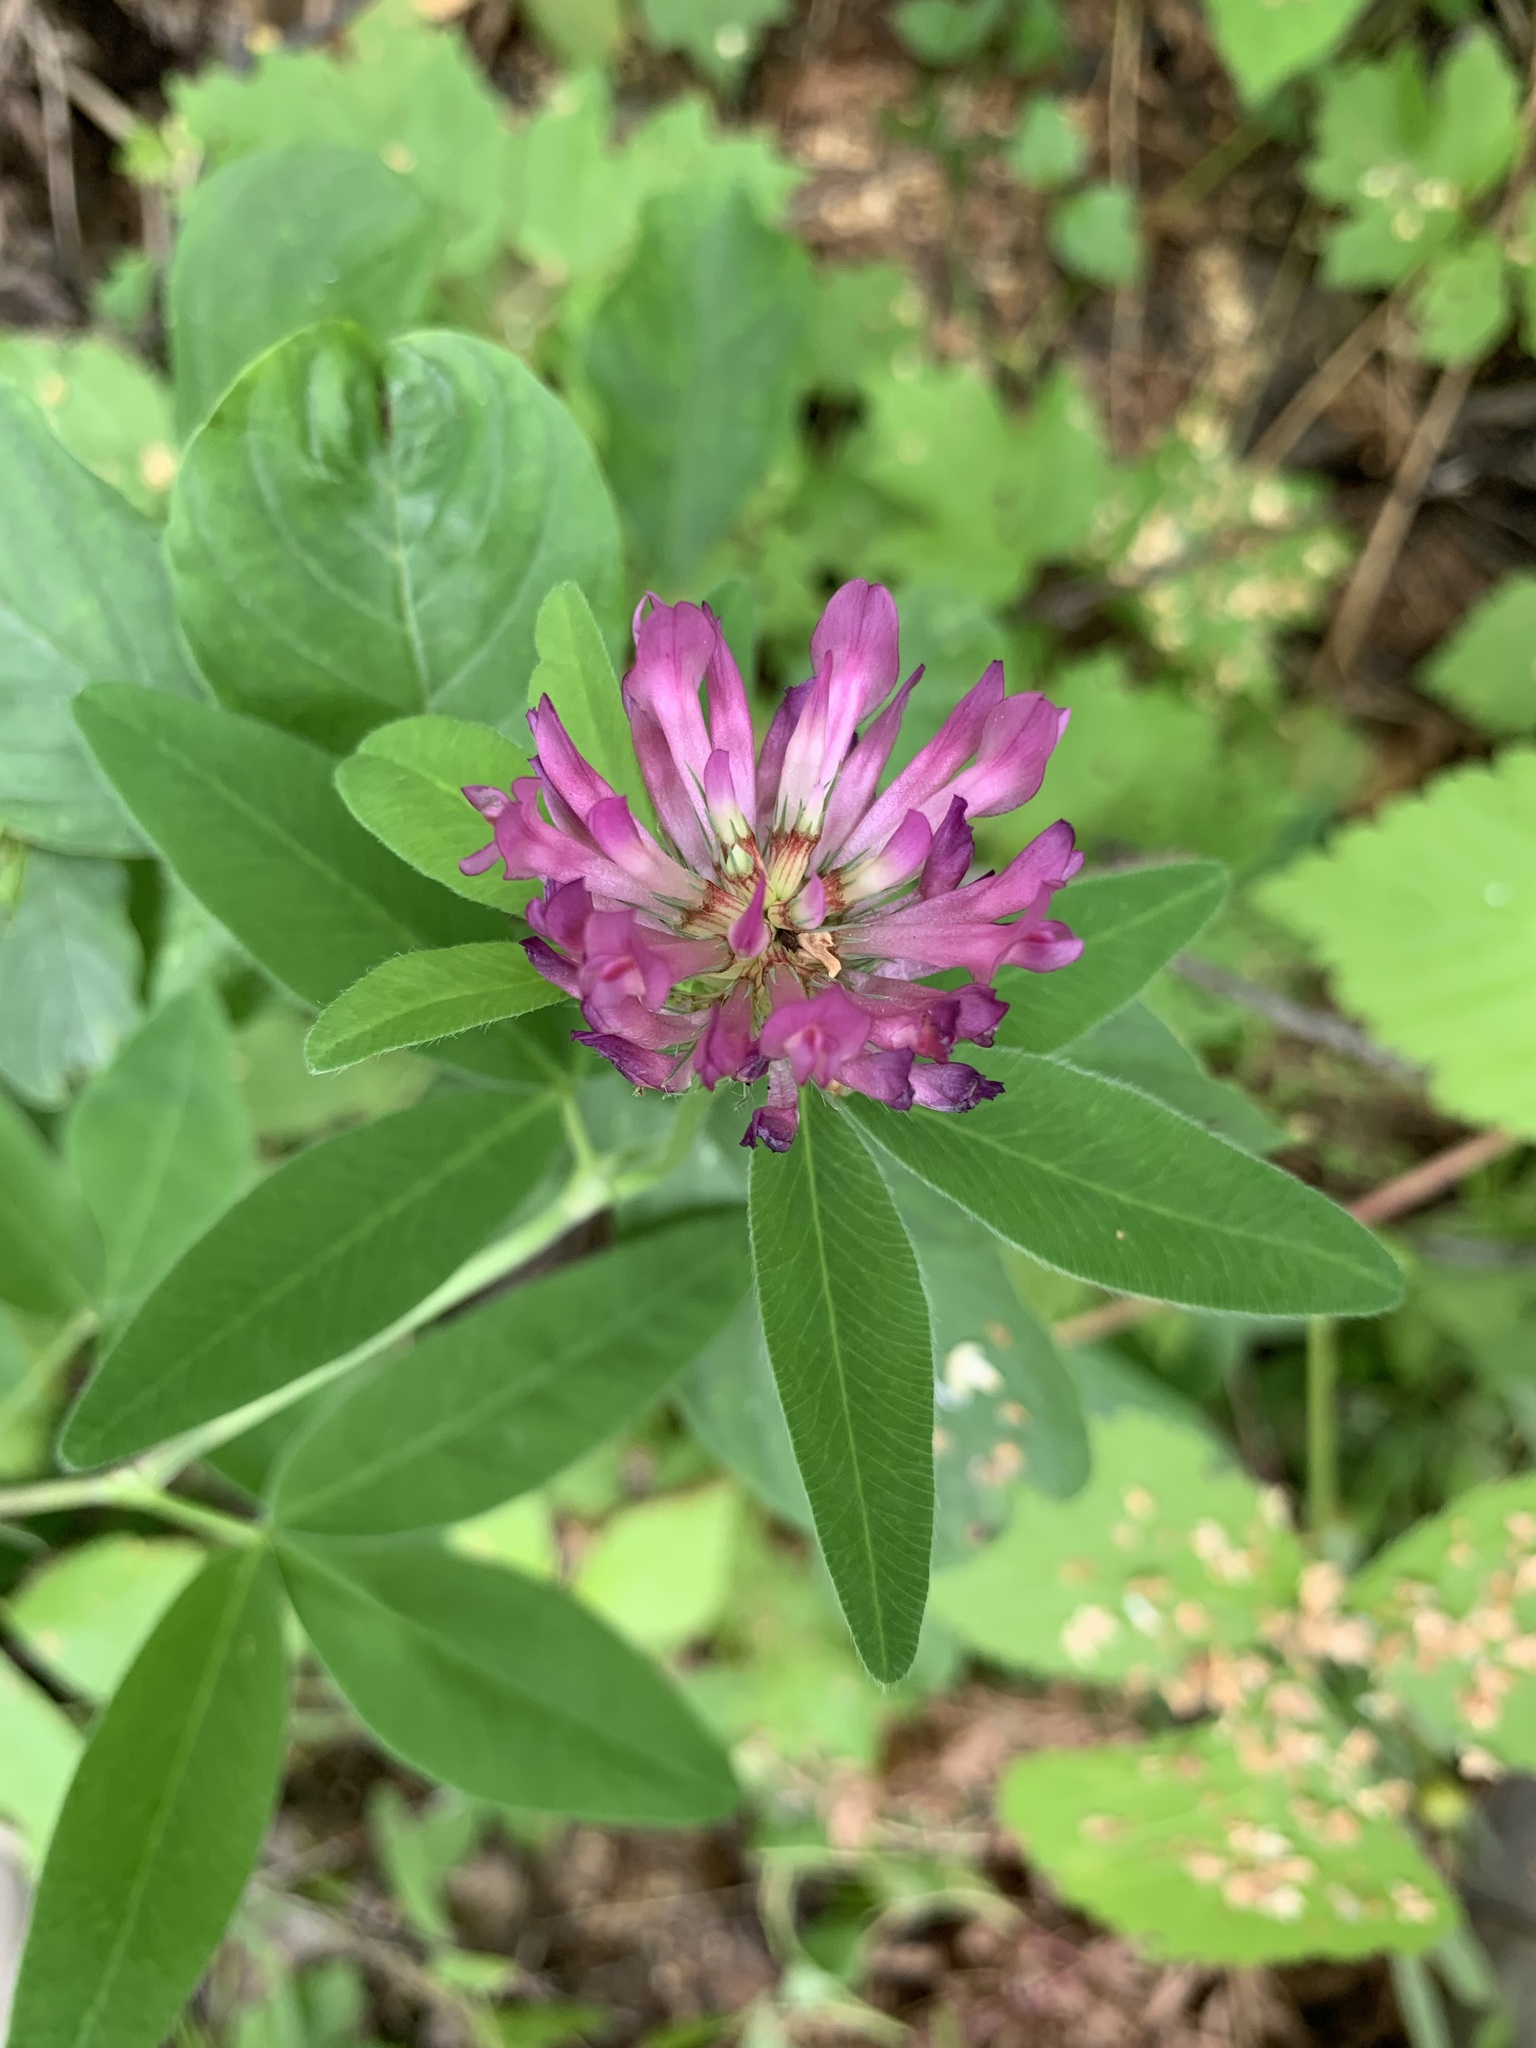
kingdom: Plantae
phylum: Tracheophyta
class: Magnoliopsida
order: Fabales
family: Fabaceae
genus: Trifolium
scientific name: Trifolium medium
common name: Zigzag clover
